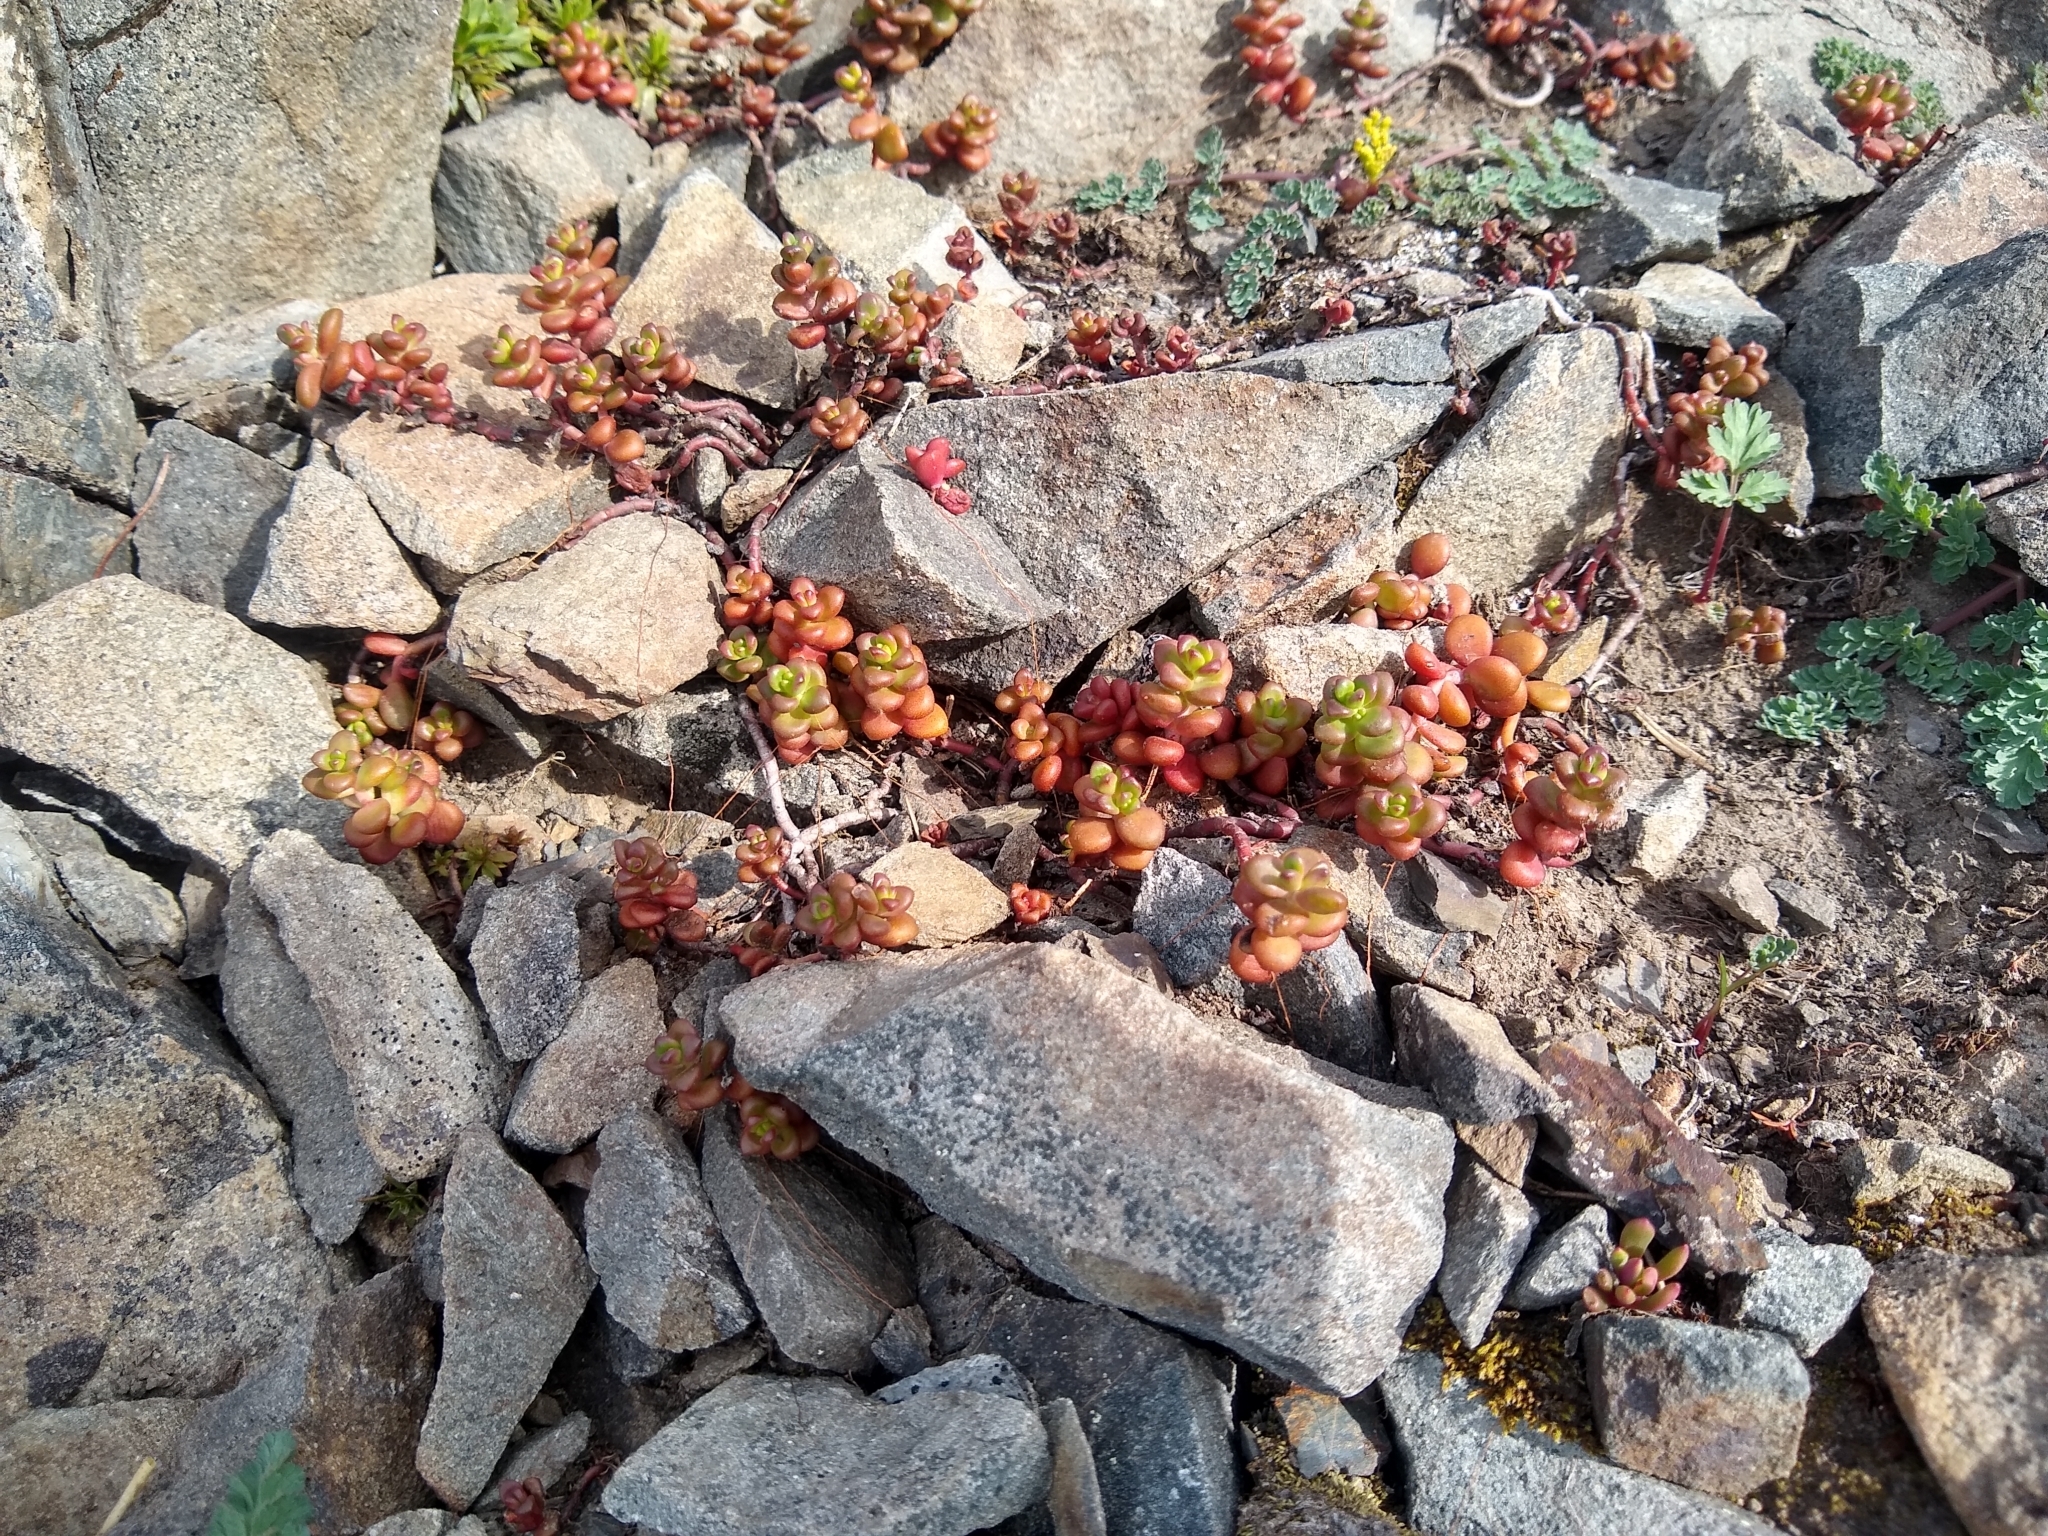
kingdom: Plantae
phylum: Tracheophyta
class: Magnoliopsida
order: Saxifragales
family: Crassulaceae
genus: Sedum
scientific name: Sedum divergens
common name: Cascade stonecrop
